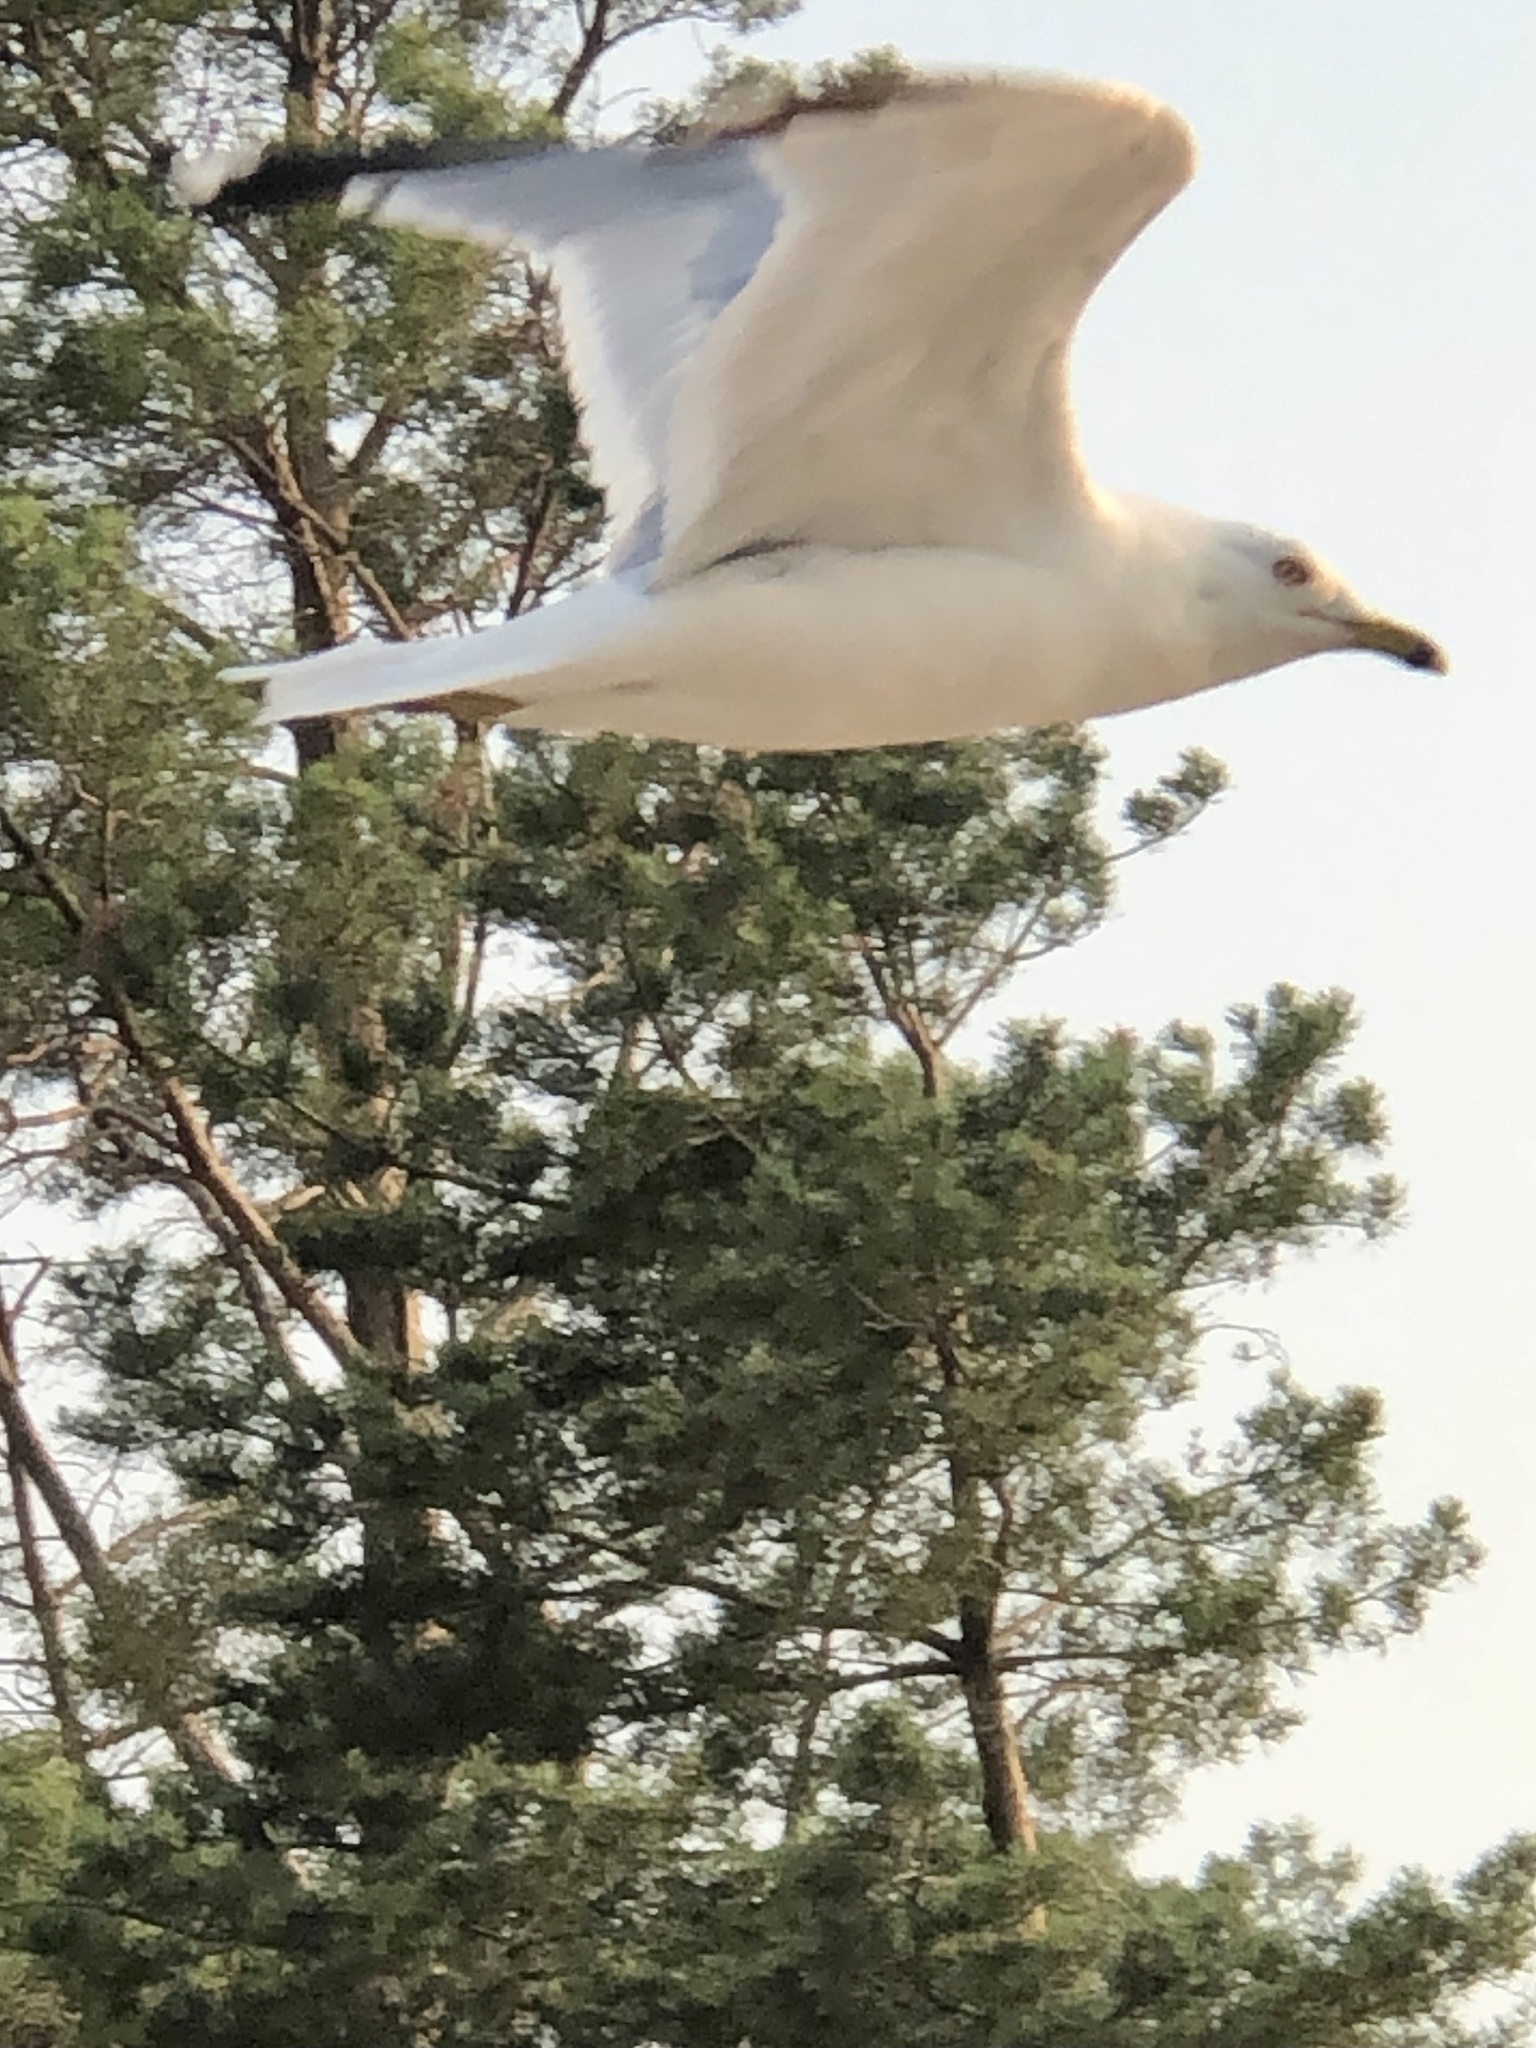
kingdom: Animalia
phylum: Chordata
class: Aves
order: Charadriiformes
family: Laridae
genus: Larus
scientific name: Larus delawarensis
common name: Ring-billed gull
